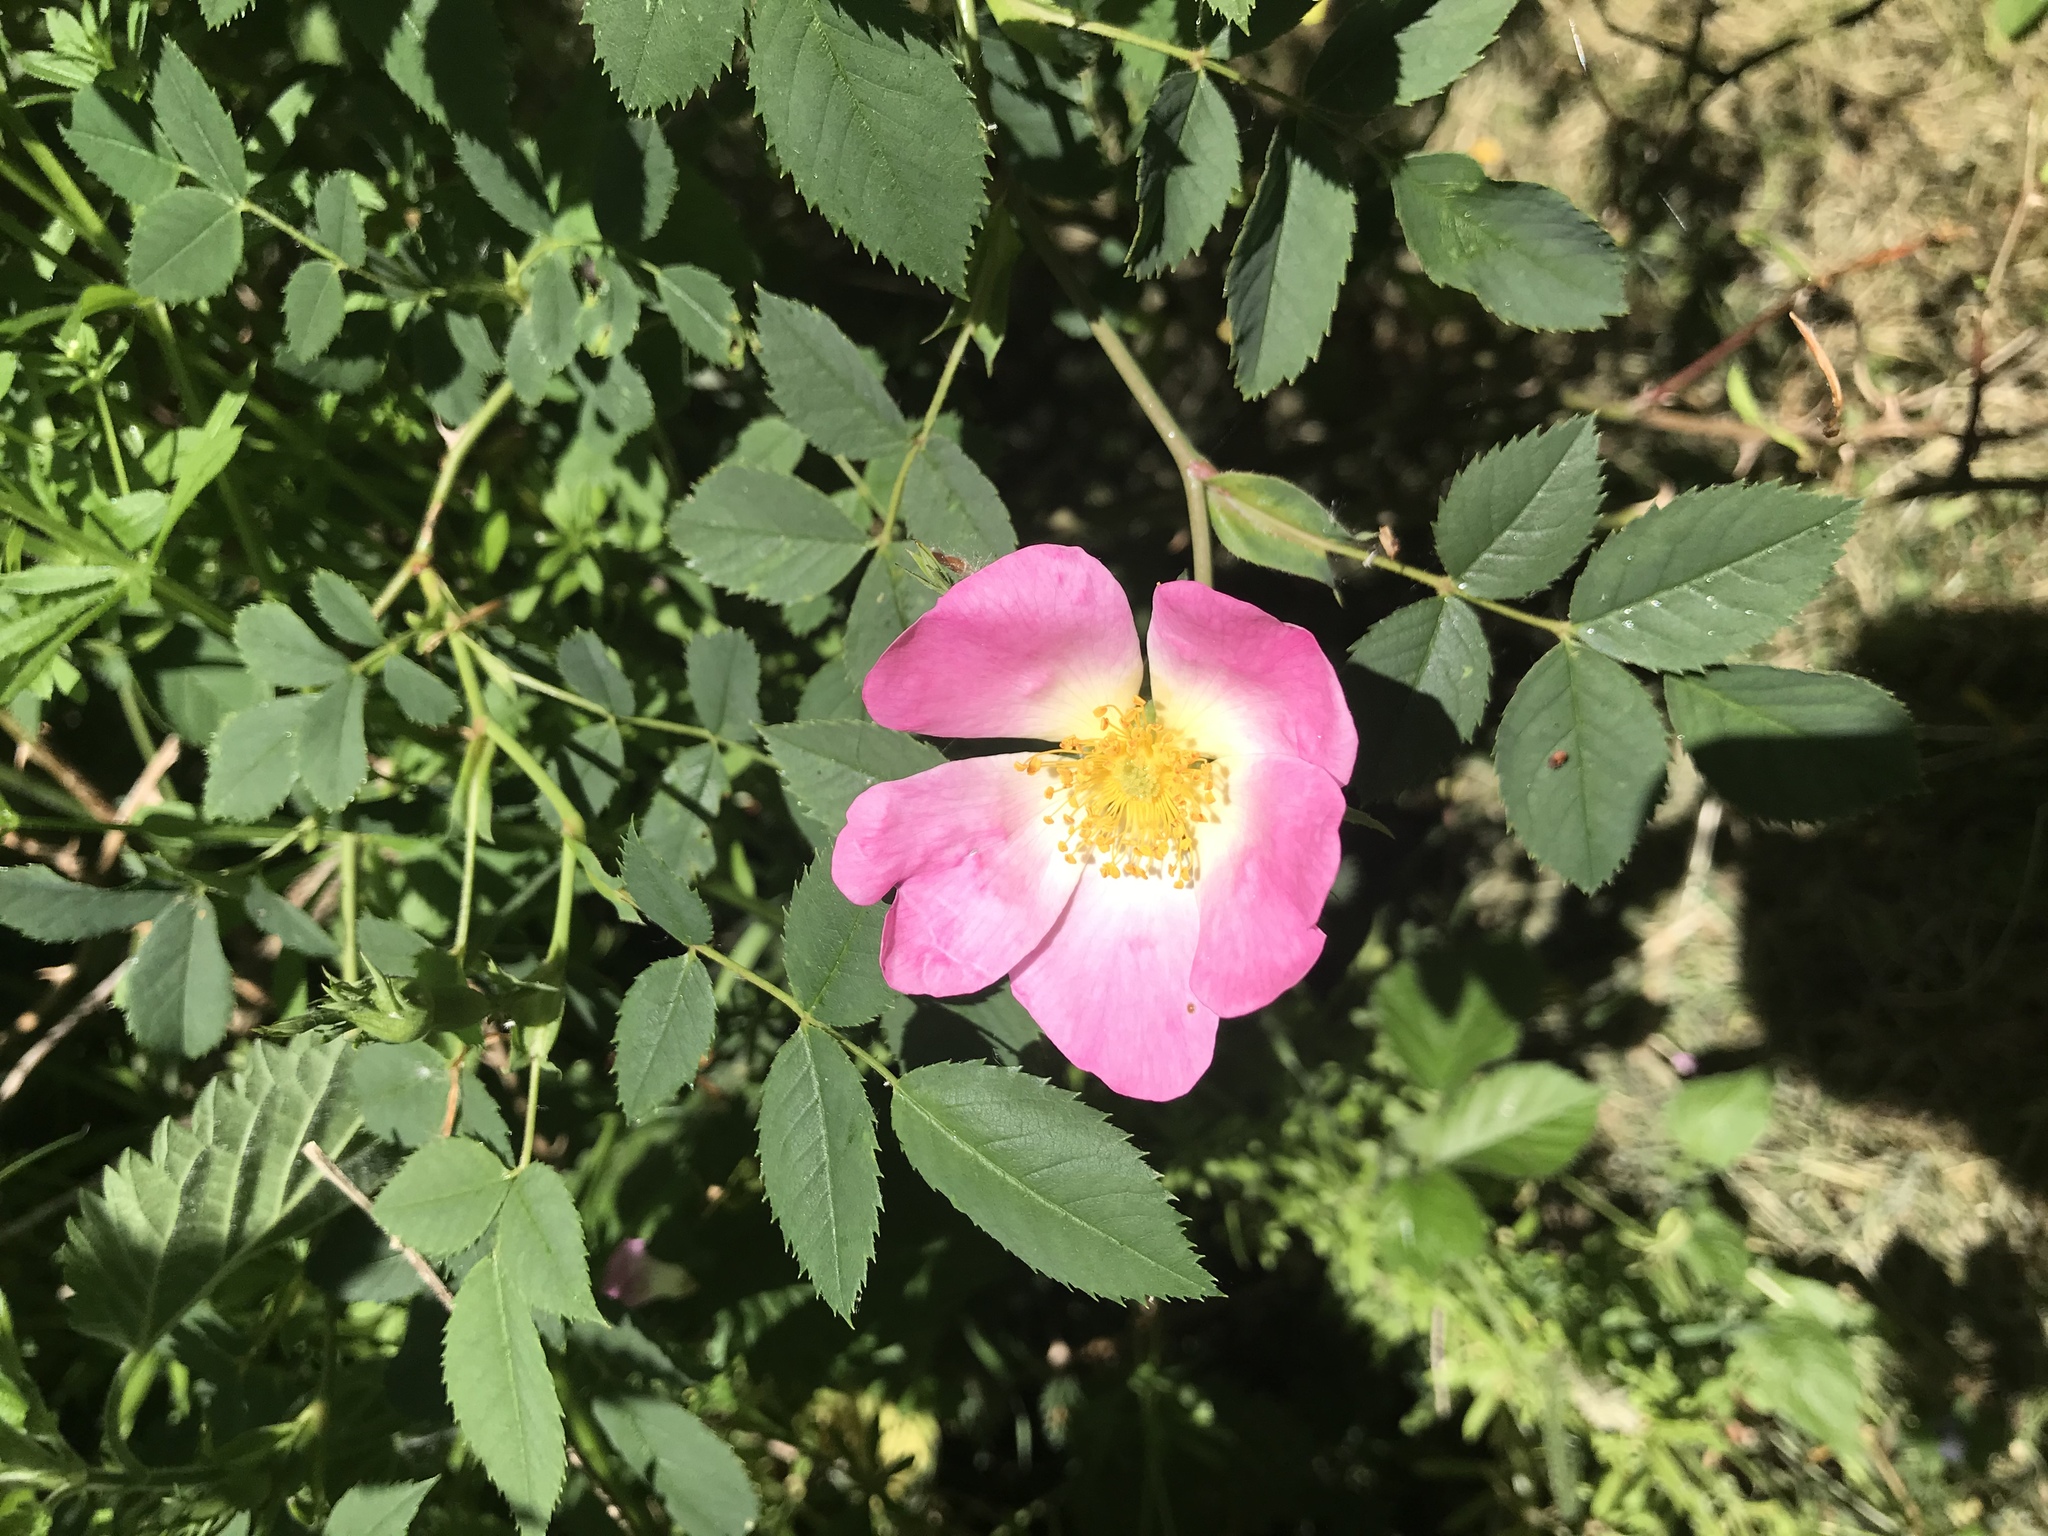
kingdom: Plantae
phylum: Tracheophyta
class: Magnoliopsida
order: Rosales
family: Rosaceae
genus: Rosa
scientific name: Rosa rubiginosa
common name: Sweet-briar
